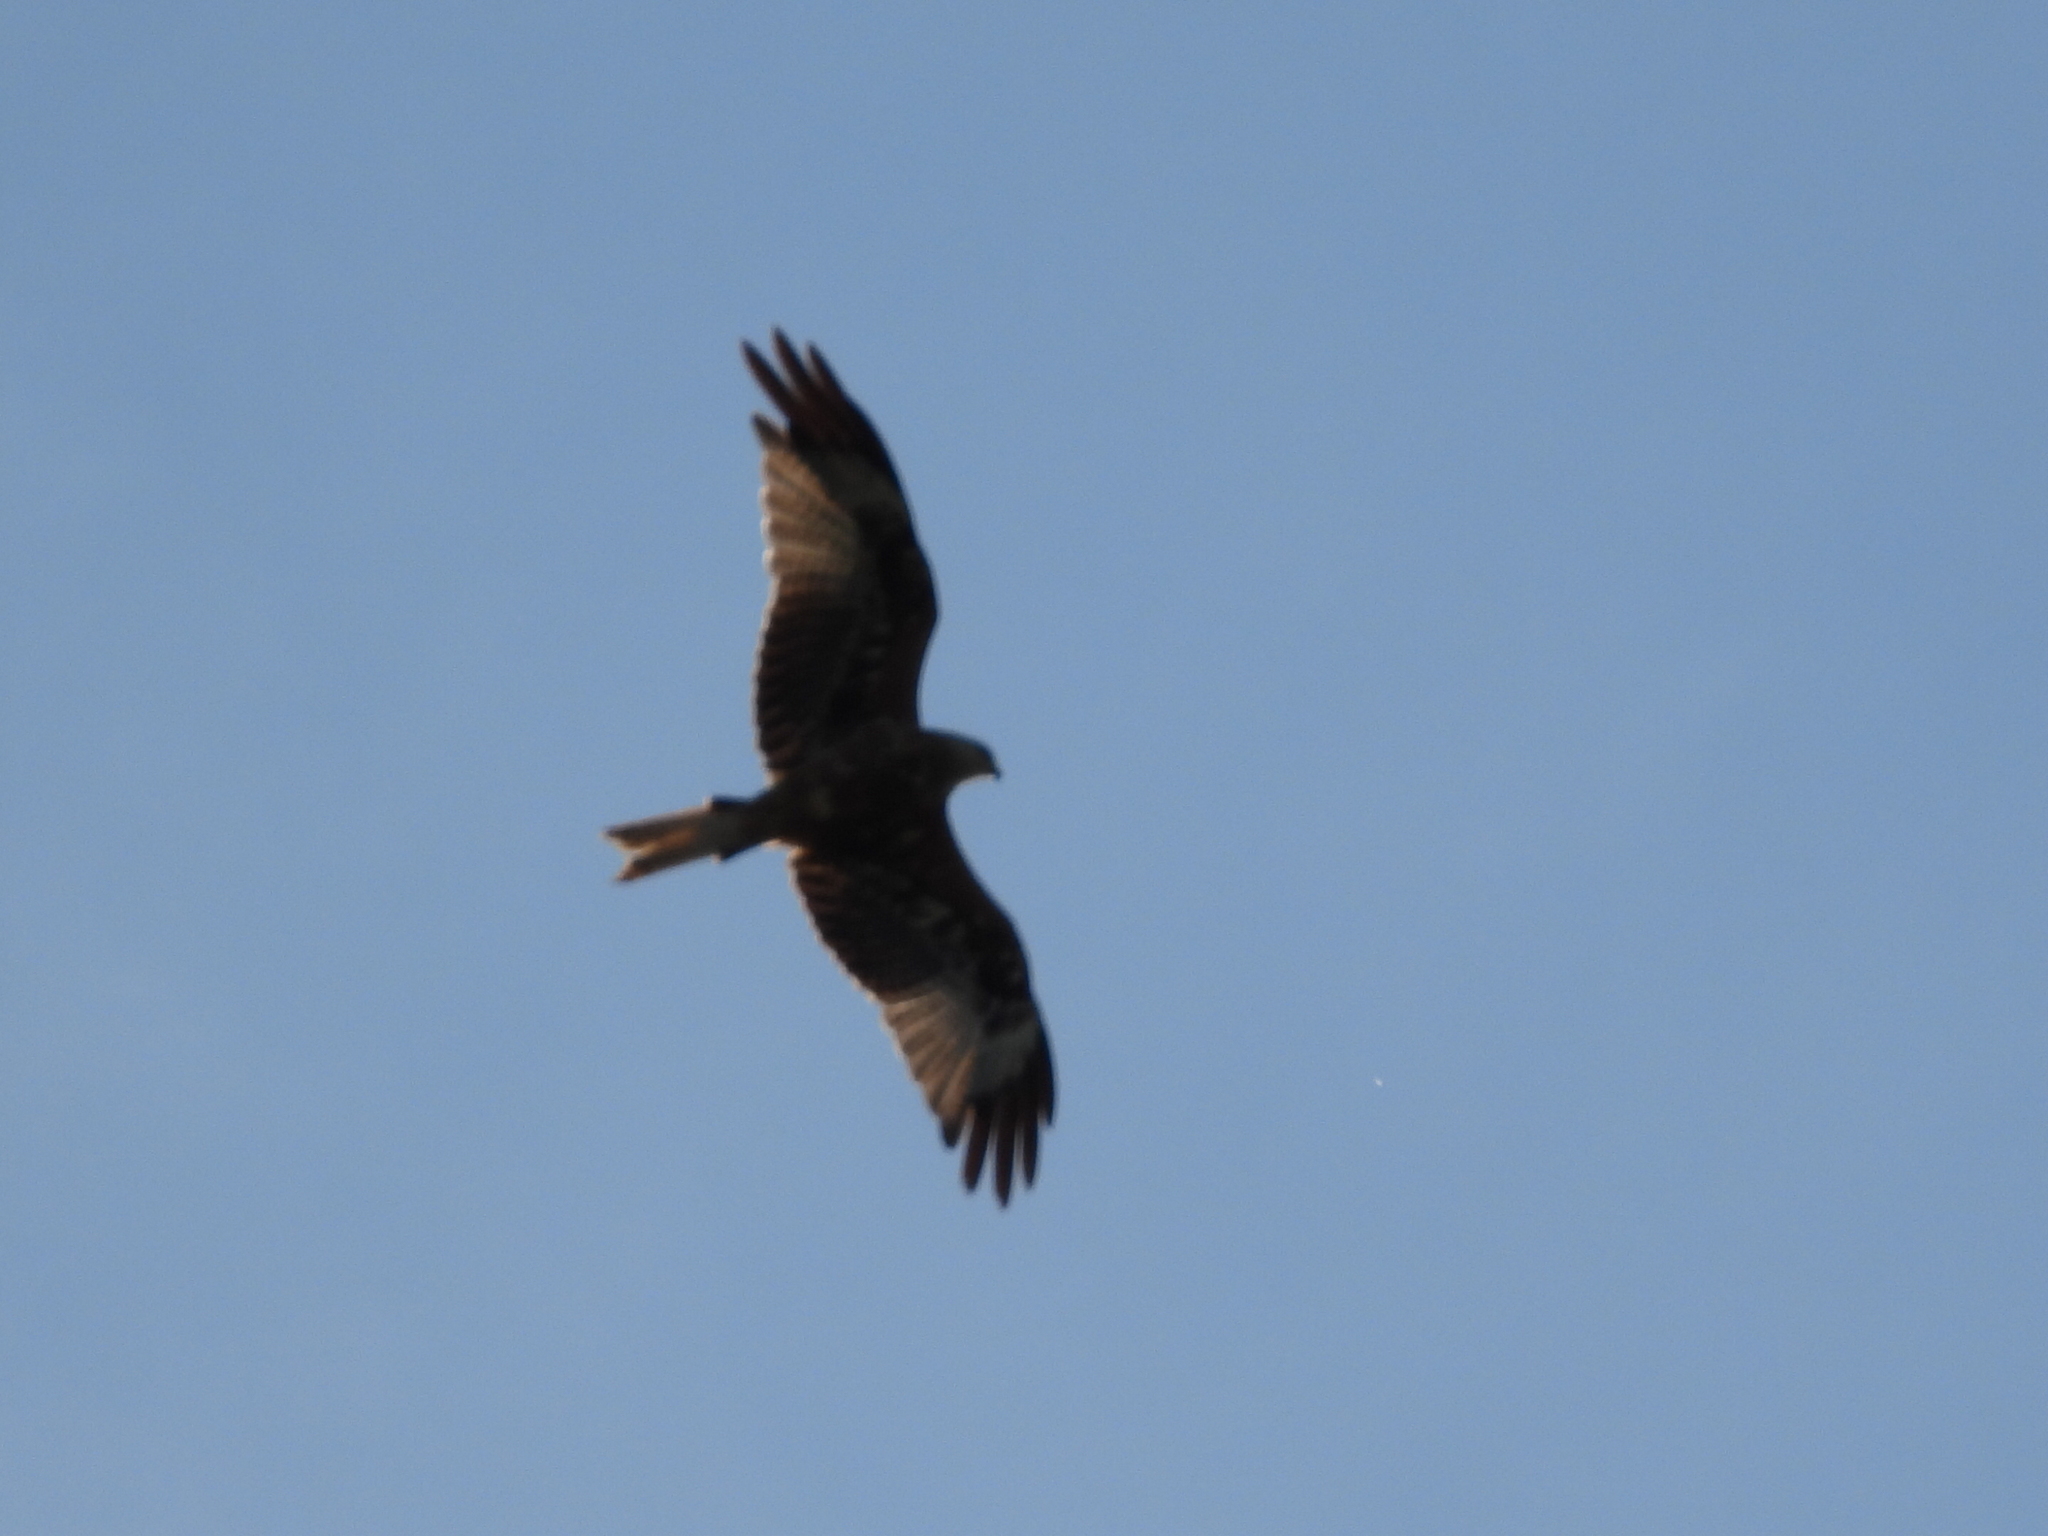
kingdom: Animalia
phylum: Chordata
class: Aves
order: Accipitriformes
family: Accipitridae
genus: Milvus
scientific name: Milvus milvus
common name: Red kite
